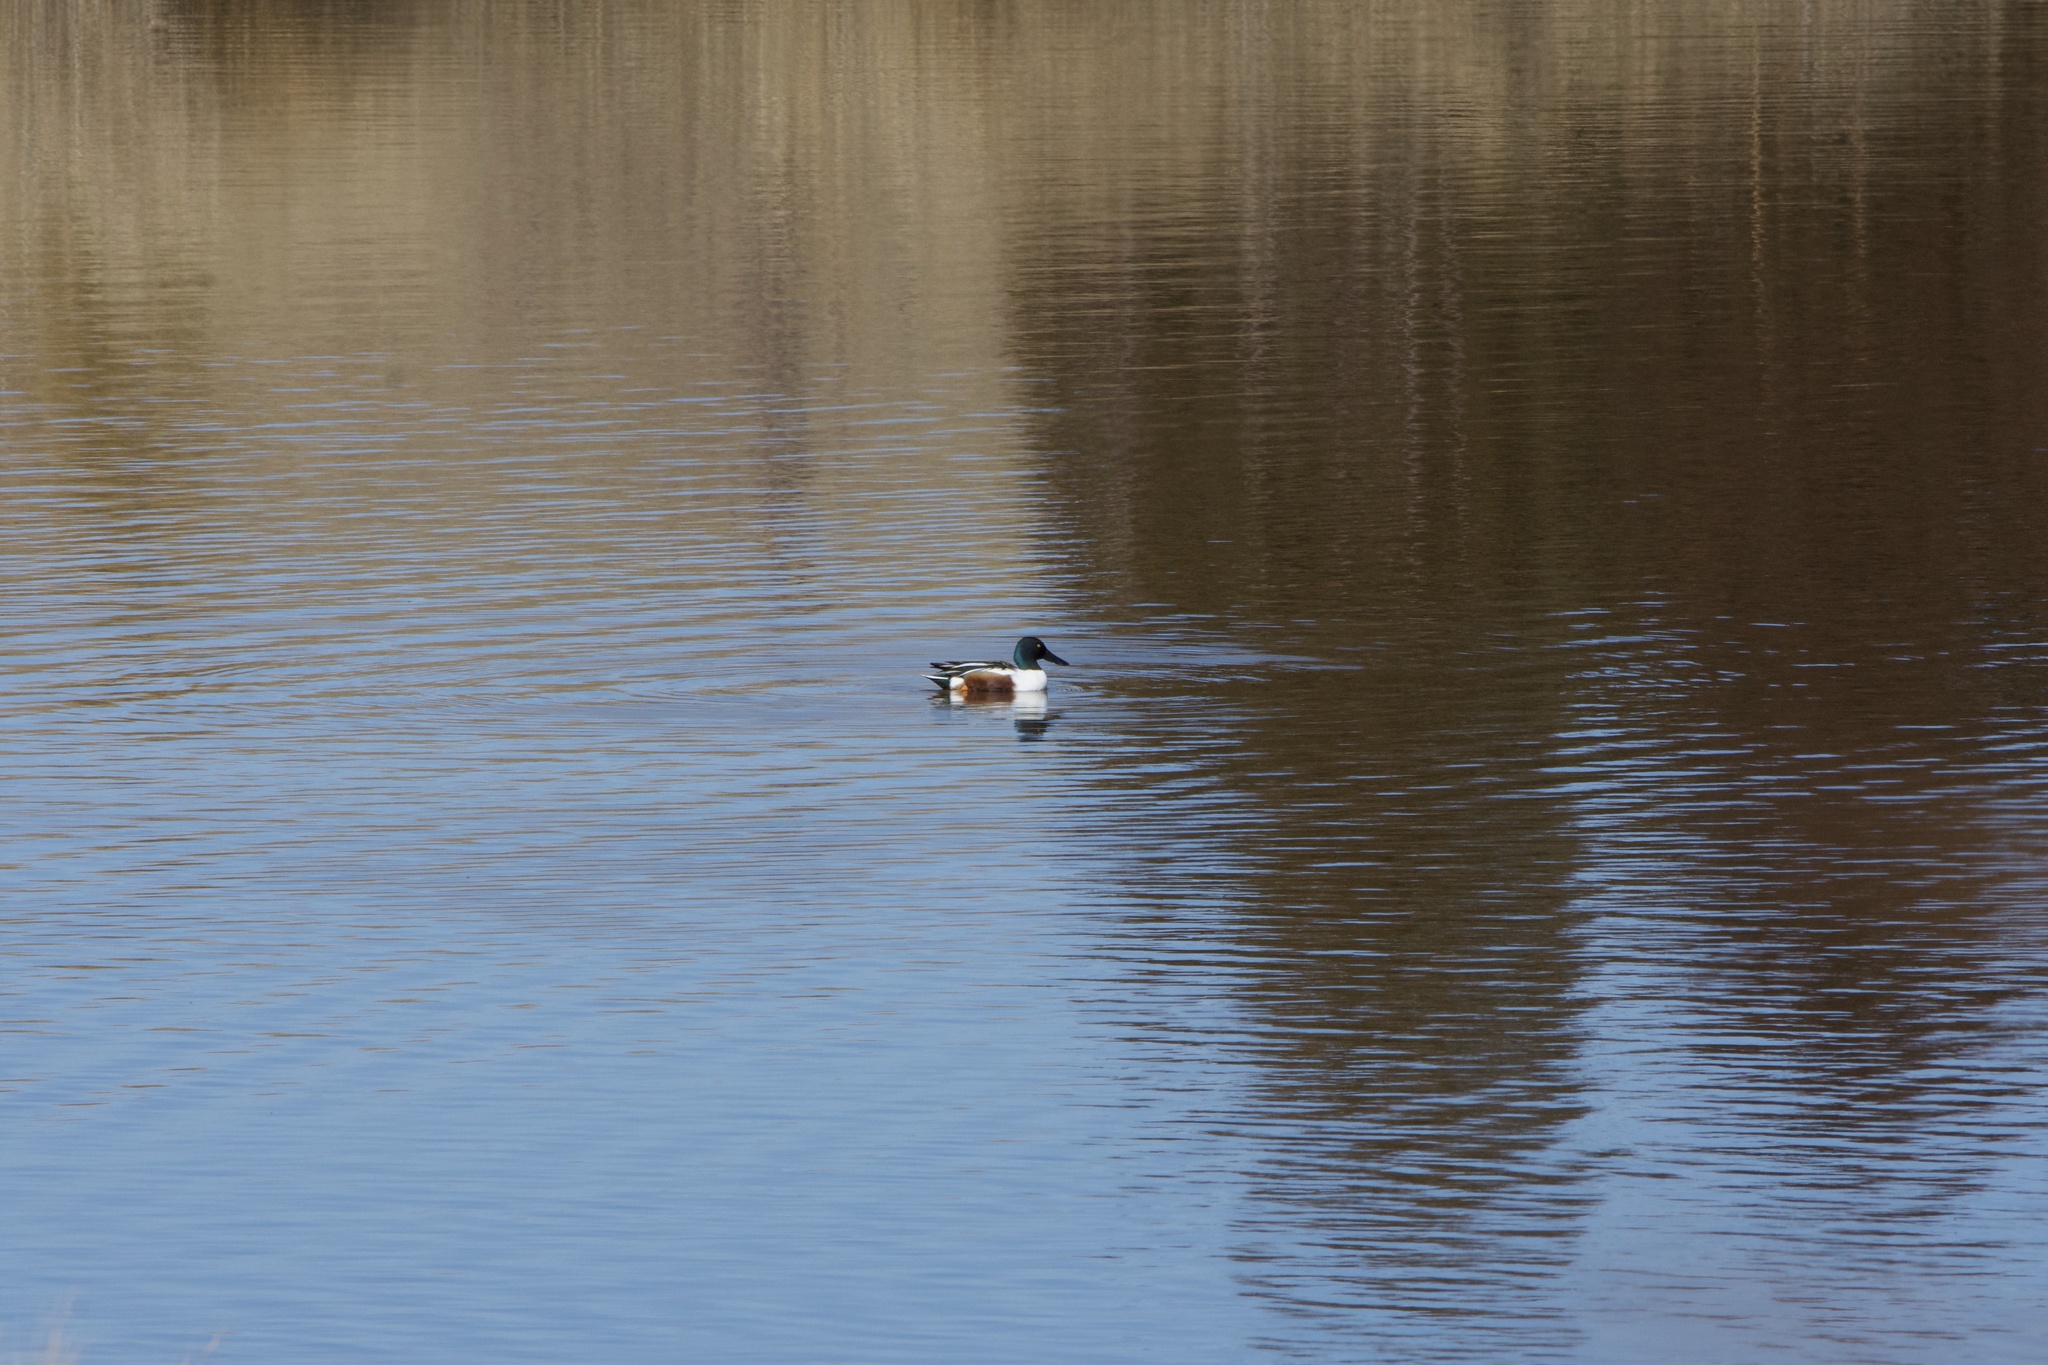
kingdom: Animalia
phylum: Chordata
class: Aves
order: Anseriformes
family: Anatidae
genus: Spatula
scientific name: Spatula clypeata
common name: Northern shoveler
